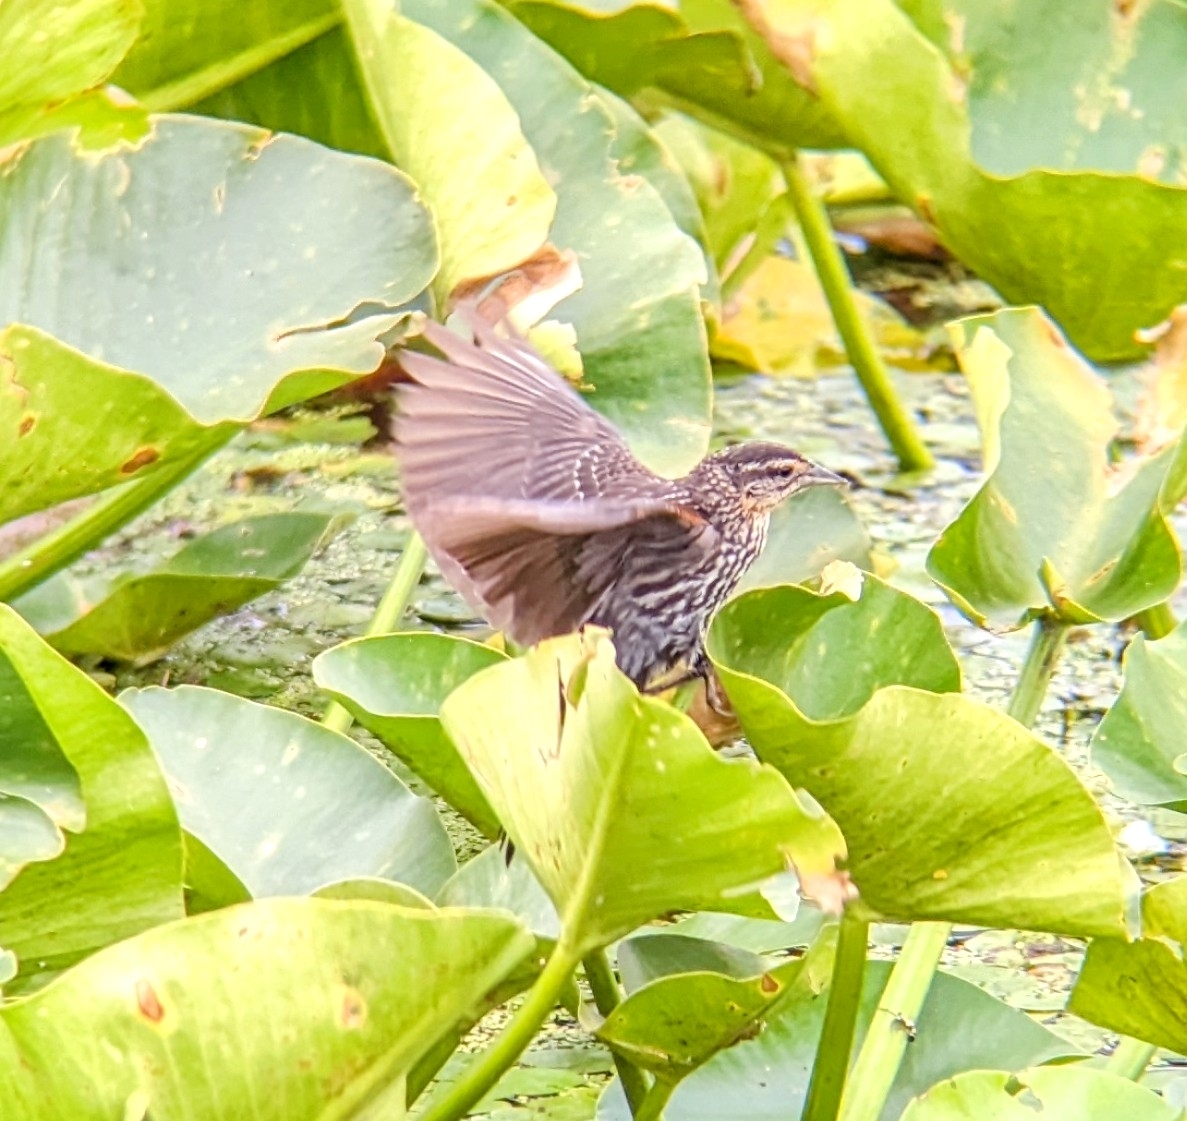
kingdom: Animalia
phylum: Chordata
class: Aves
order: Passeriformes
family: Icteridae
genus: Agelaius
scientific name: Agelaius phoeniceus
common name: Red-winged blackbird
